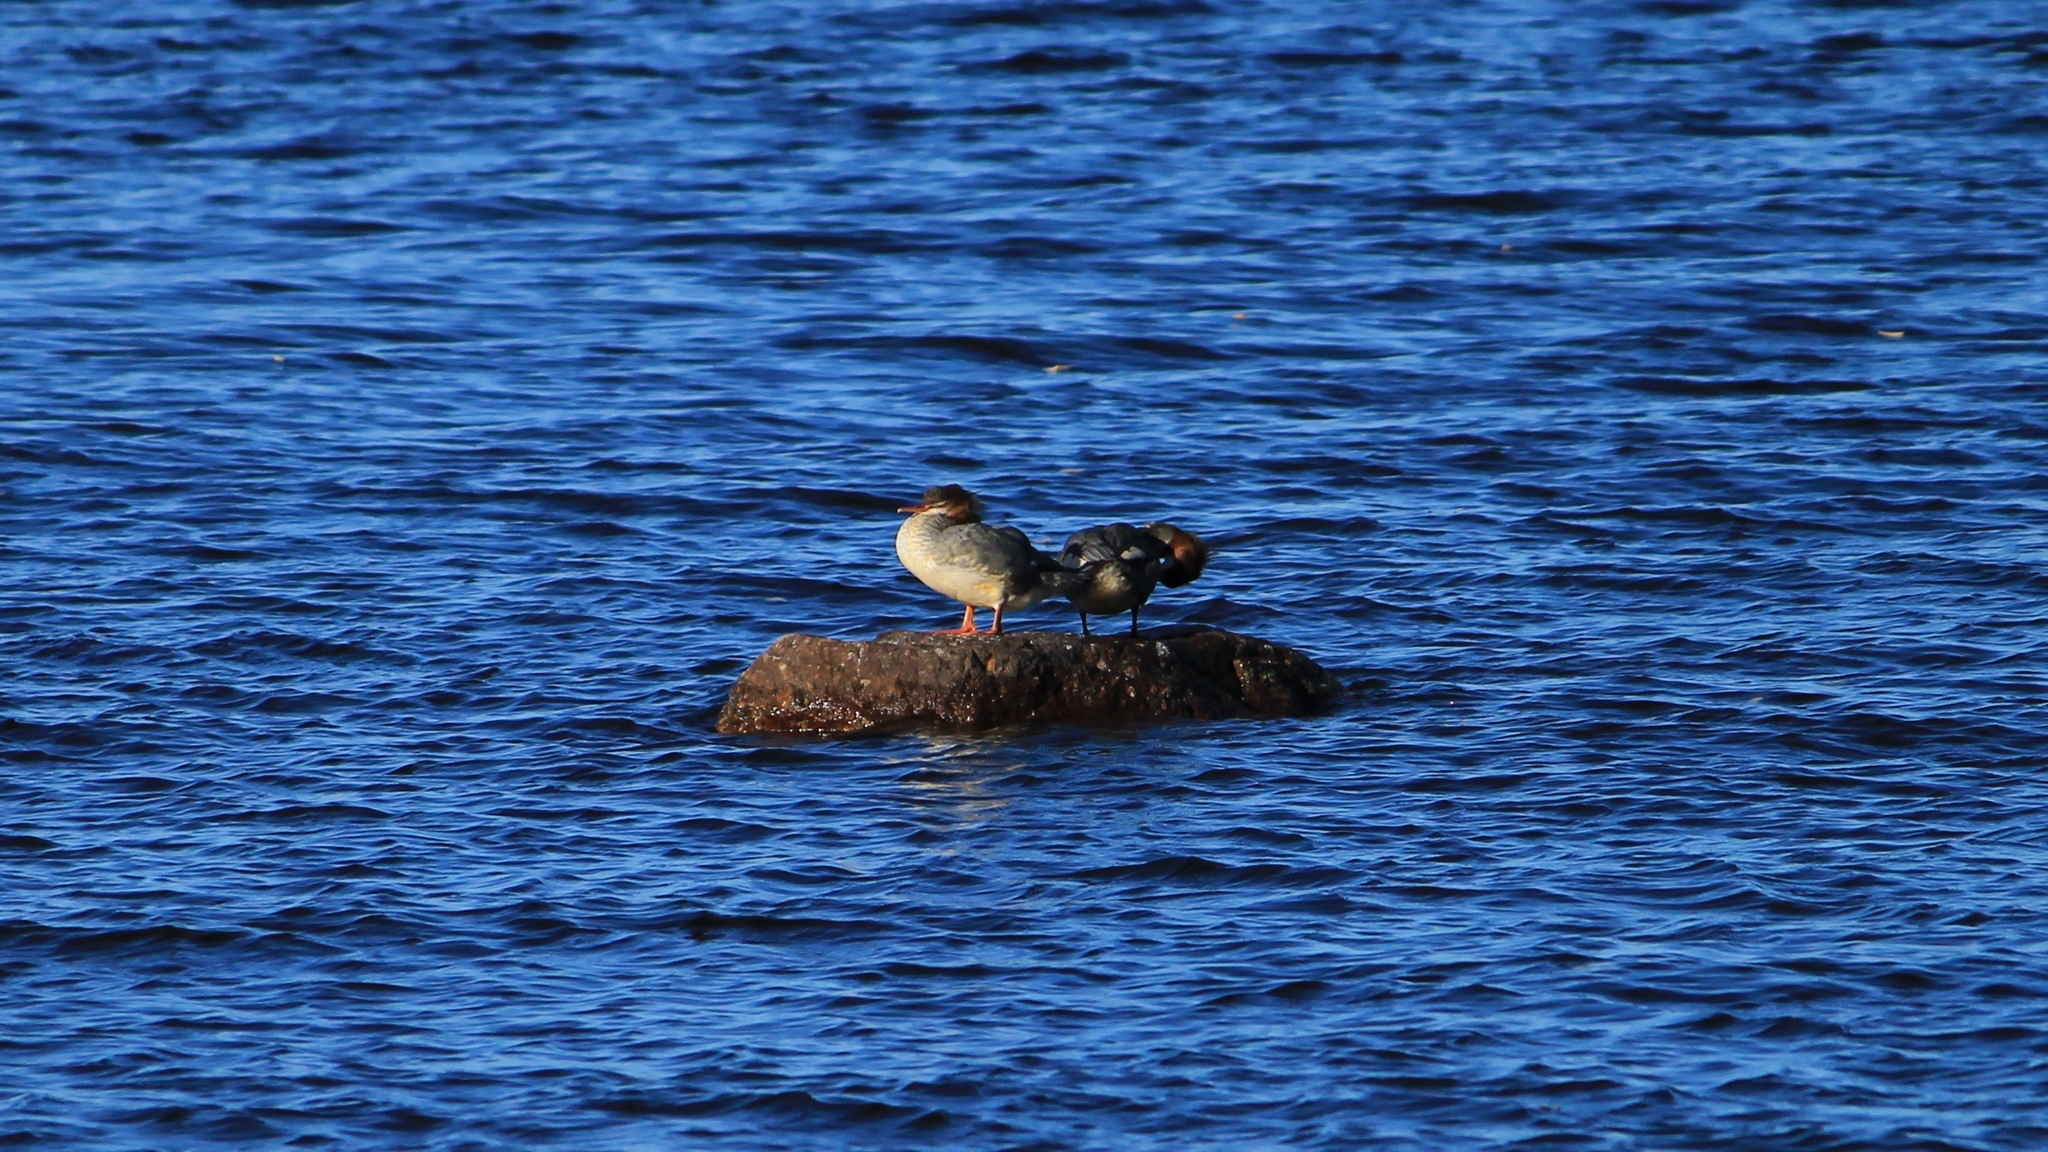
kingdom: Animalia
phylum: Chordata
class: Aves
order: Anseriformes
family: Anatidae
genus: Mergus
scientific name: Mergus merganser
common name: Common merganser
